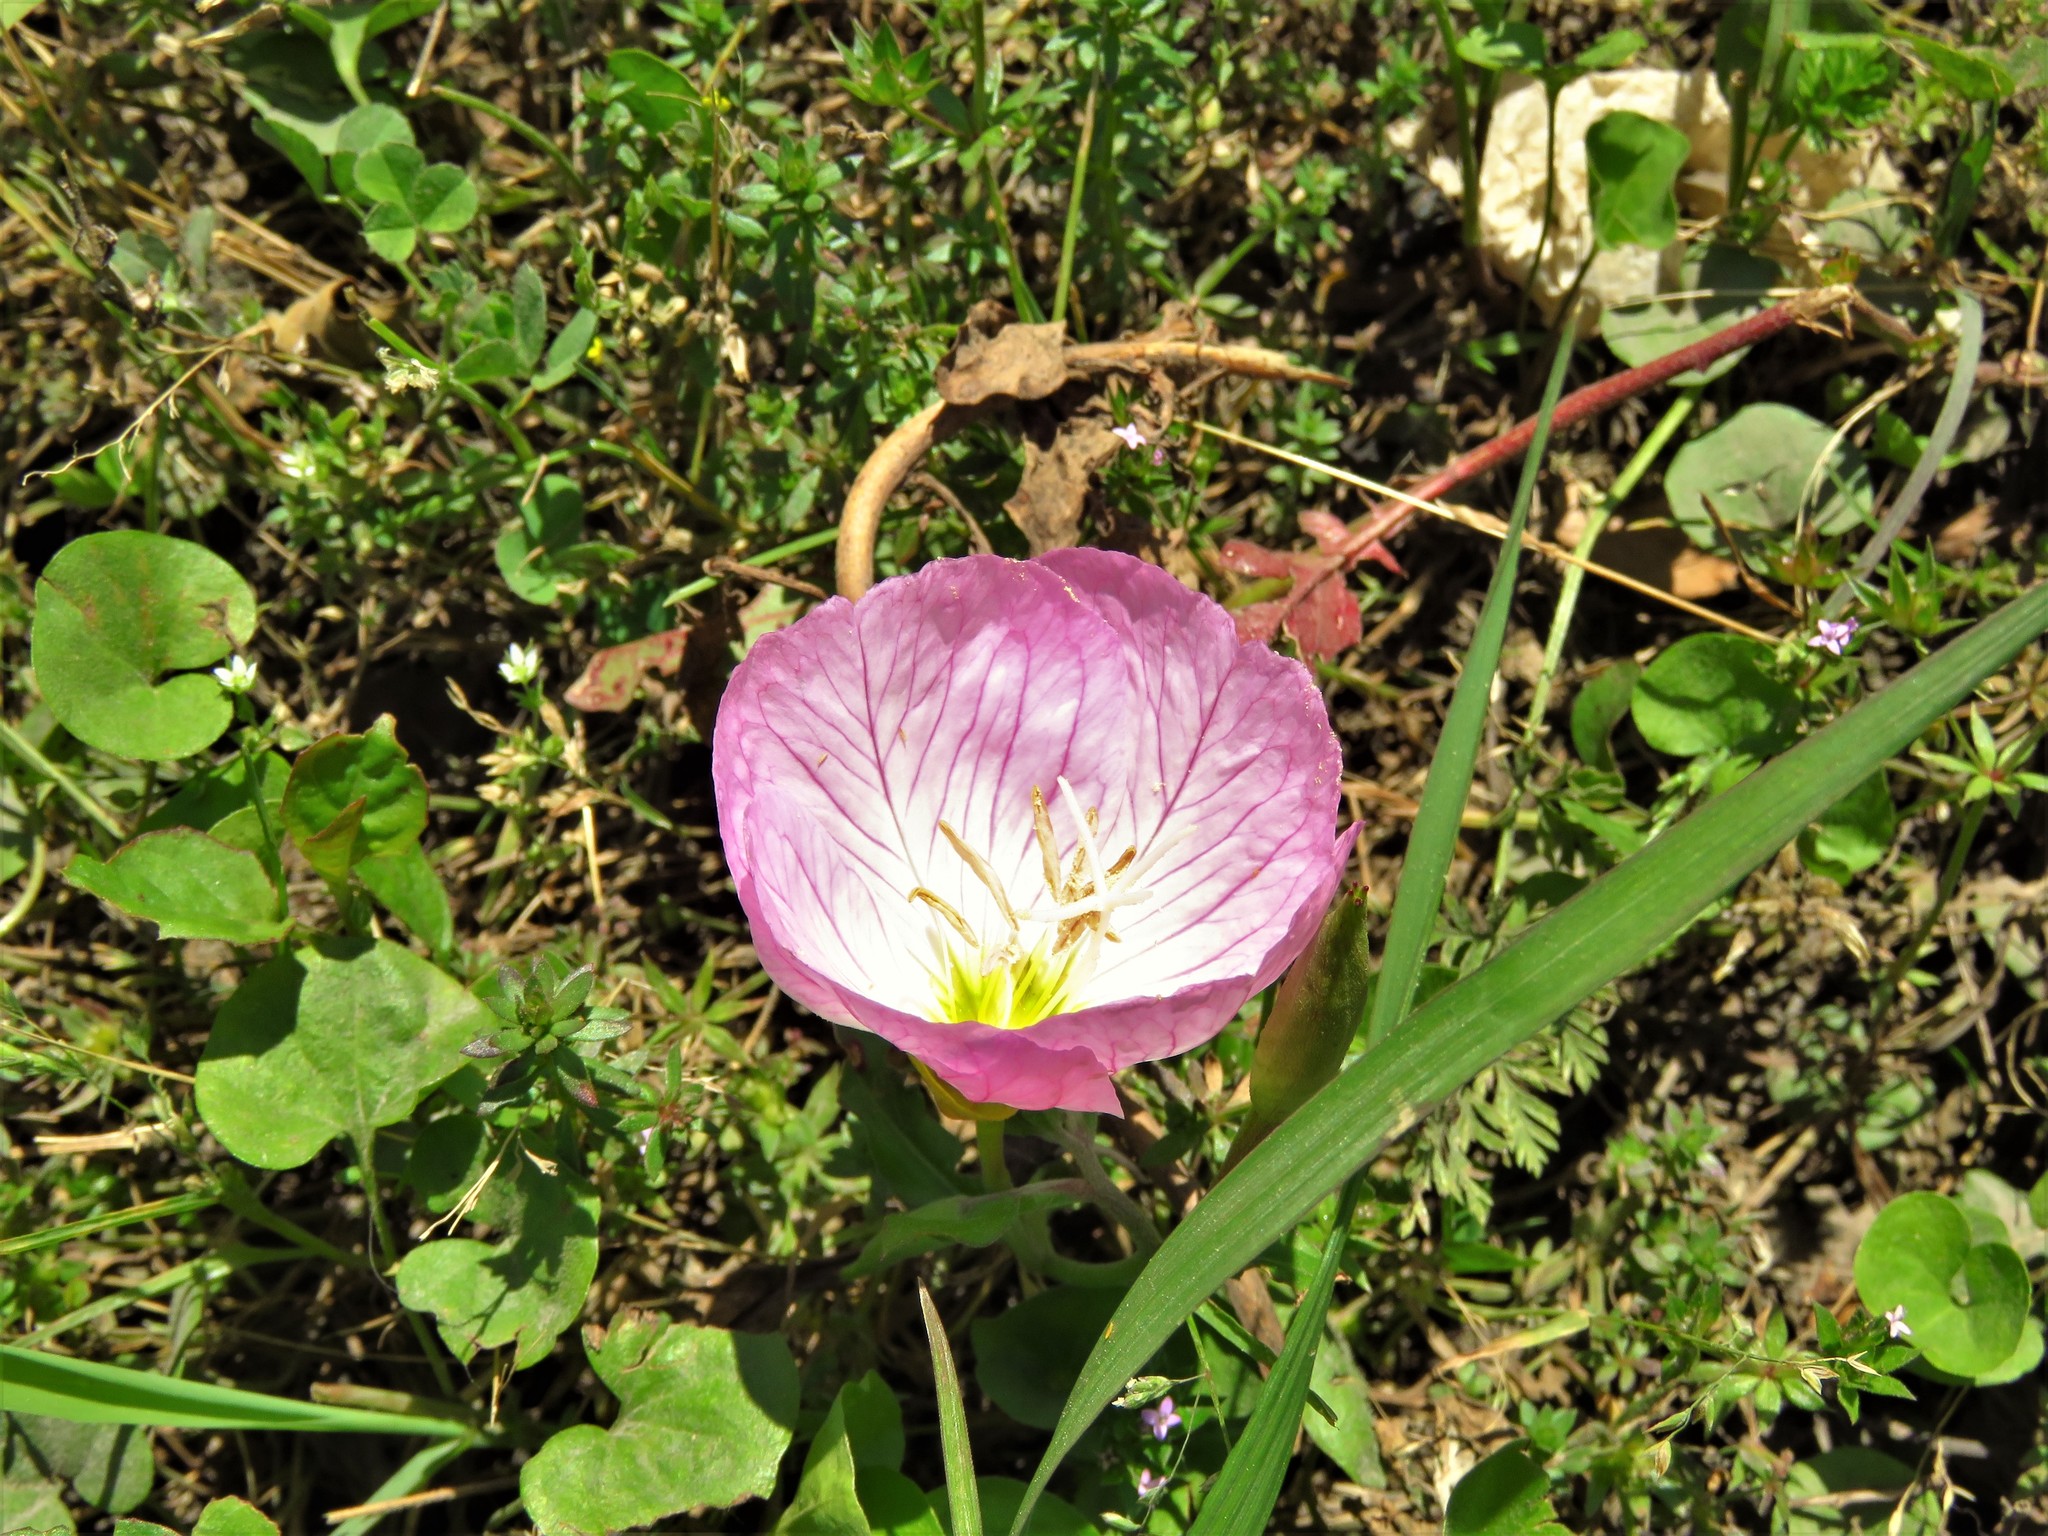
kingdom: Plantae
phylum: Tracheophyta
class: Magnoliopsida
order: Myrtales
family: Onagraceae
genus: Oenothera
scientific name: Oenothera speciosa
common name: White evening-primrose
